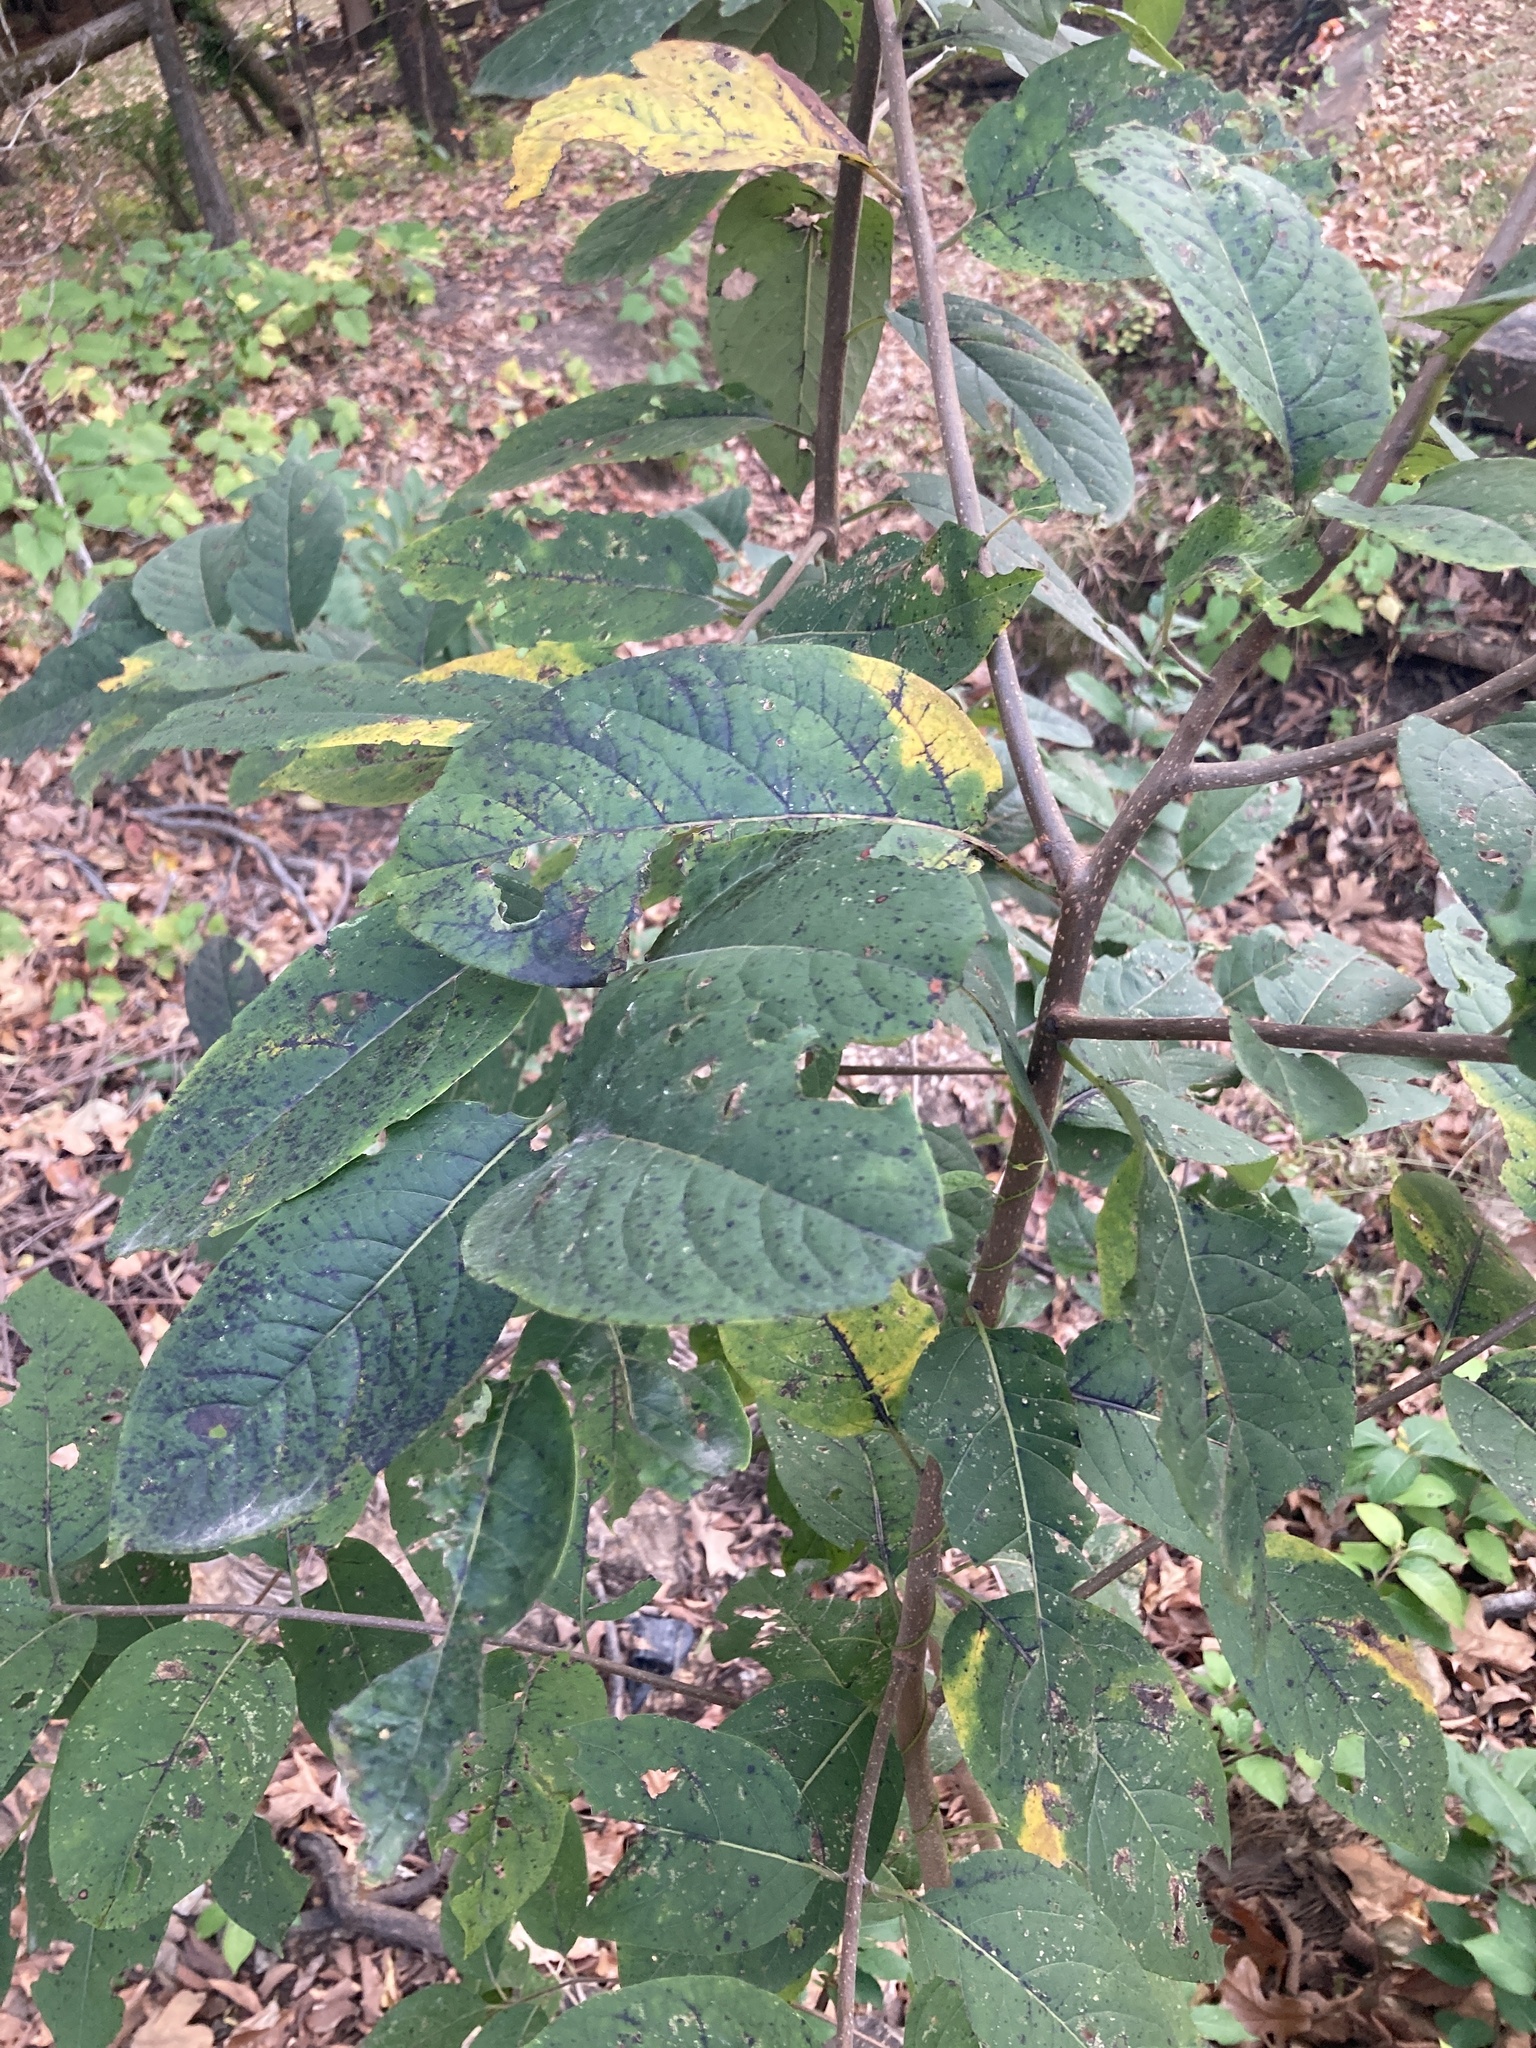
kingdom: Plantae
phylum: Tracheophyta
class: Magnoliopsida
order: Ericales
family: Ebenaceae
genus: Diospyros
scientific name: Diospyros virginiana
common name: Persimmon
